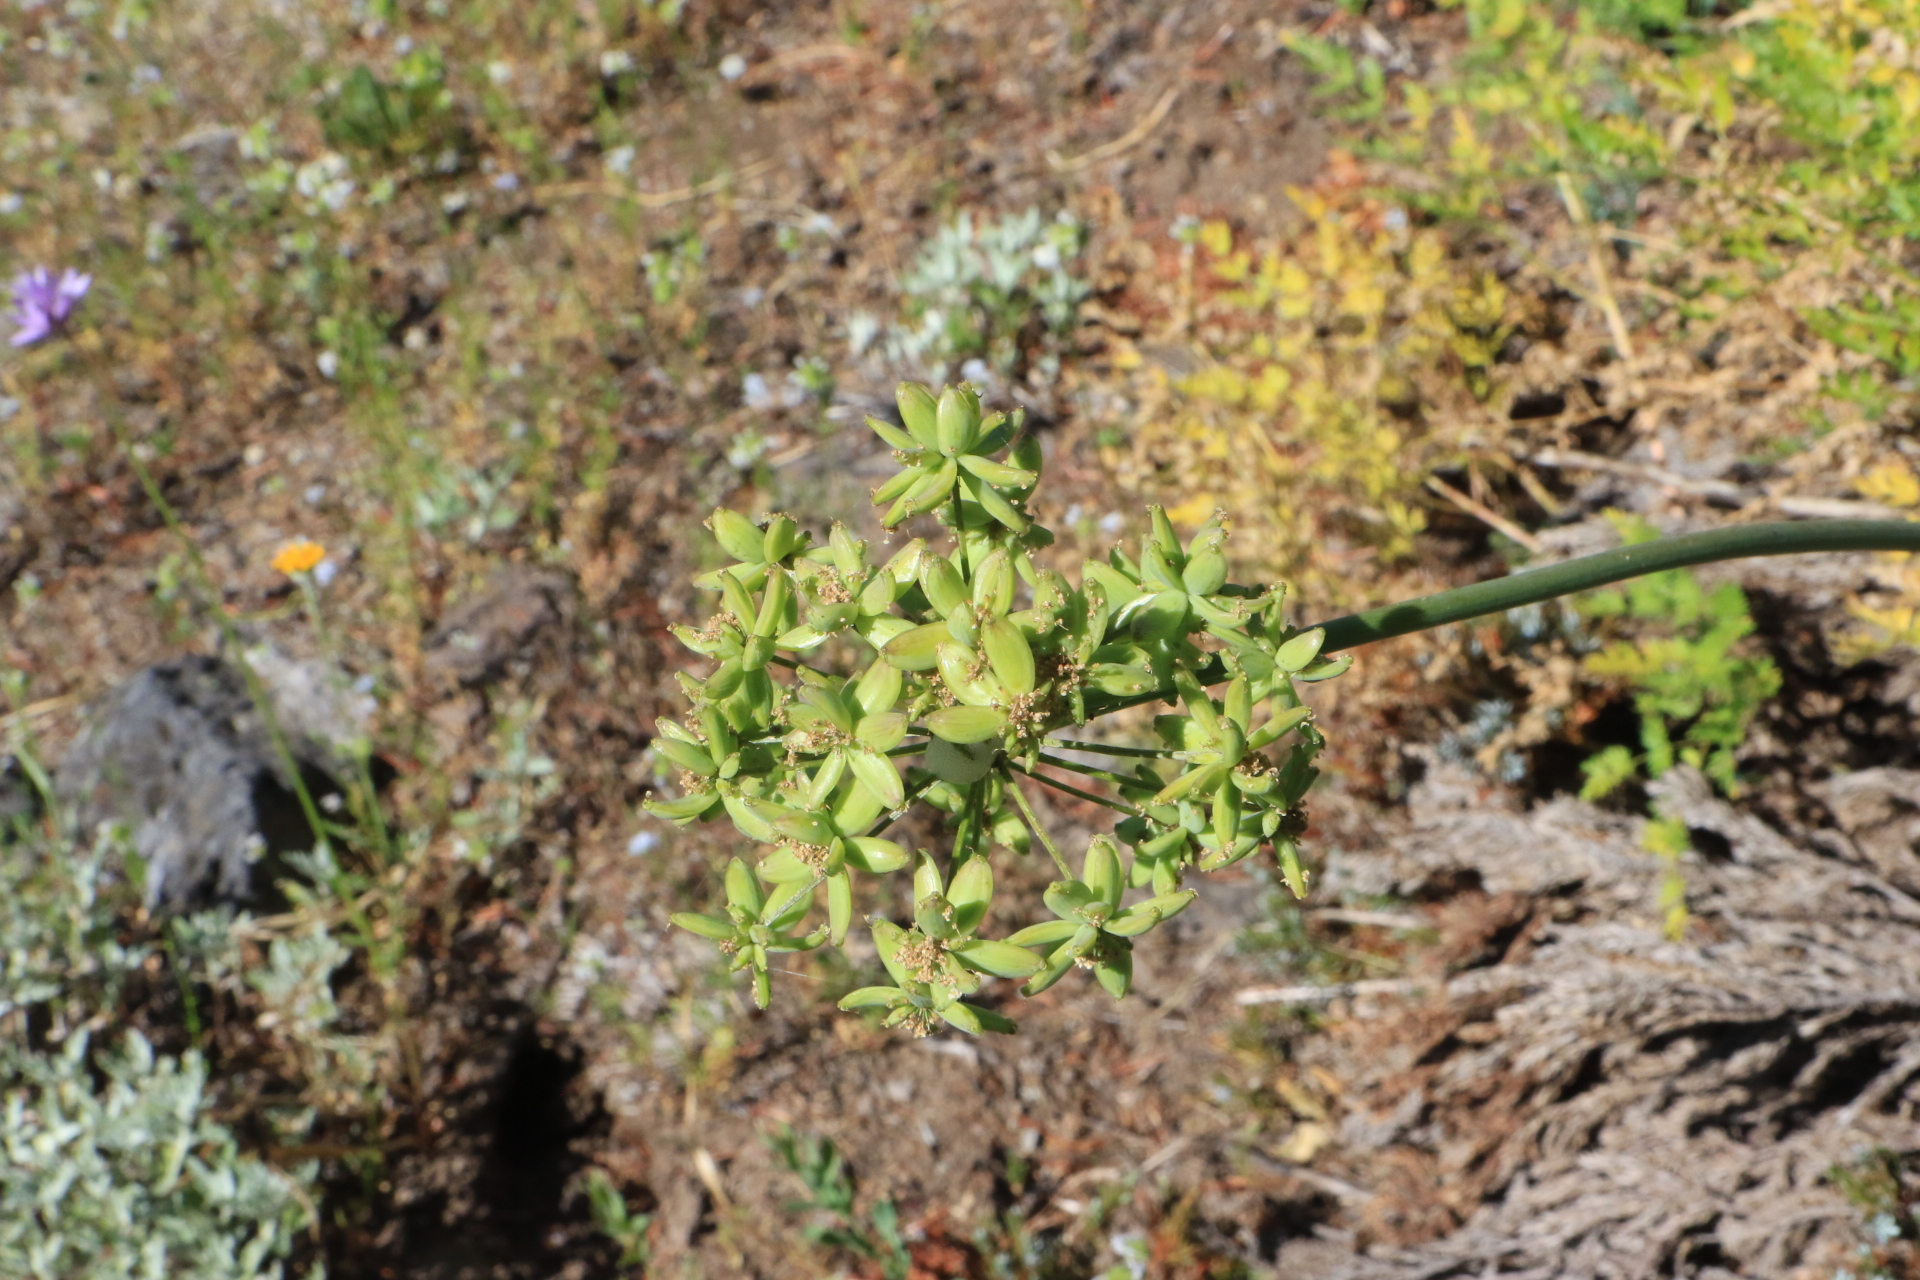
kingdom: Plantae
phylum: Tracheophyta
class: Magnoliopsida
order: Apiales
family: Apiaceae
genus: Lomatium
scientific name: Lomatium dissectum
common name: Lomatium
